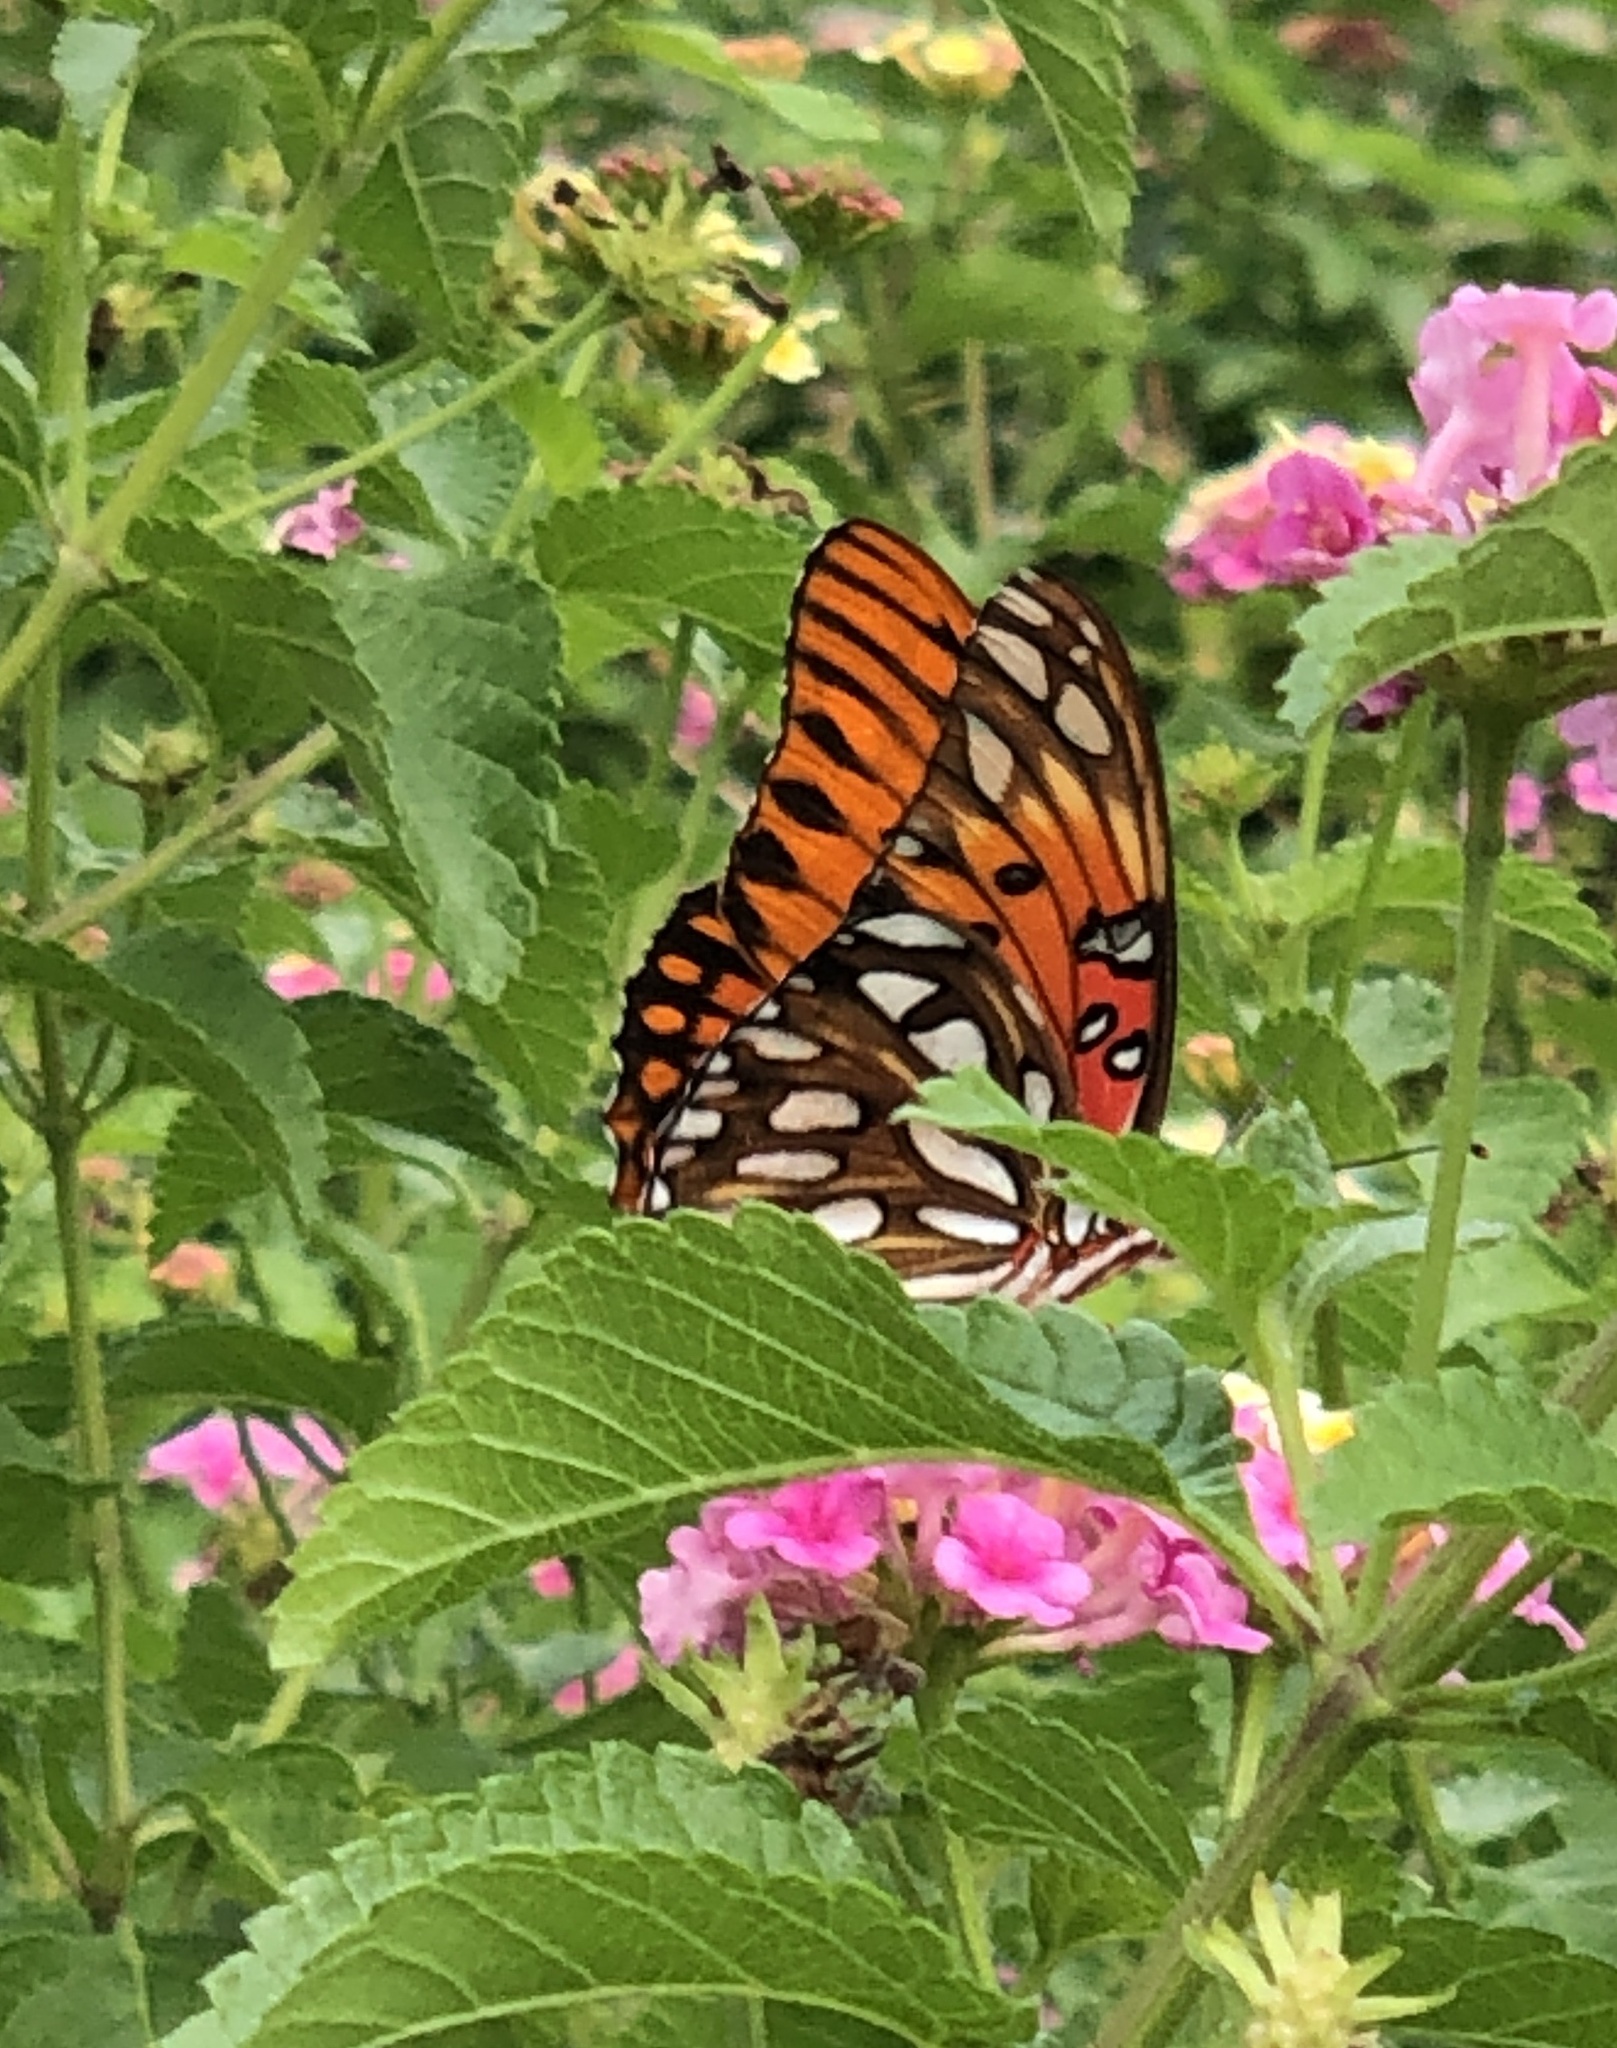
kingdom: Animalia
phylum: Arthropoda
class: Insecta
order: Lepidoptera
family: Nymphalidae
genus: Dione
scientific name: Dione vanillae
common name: Gulf fritillary
